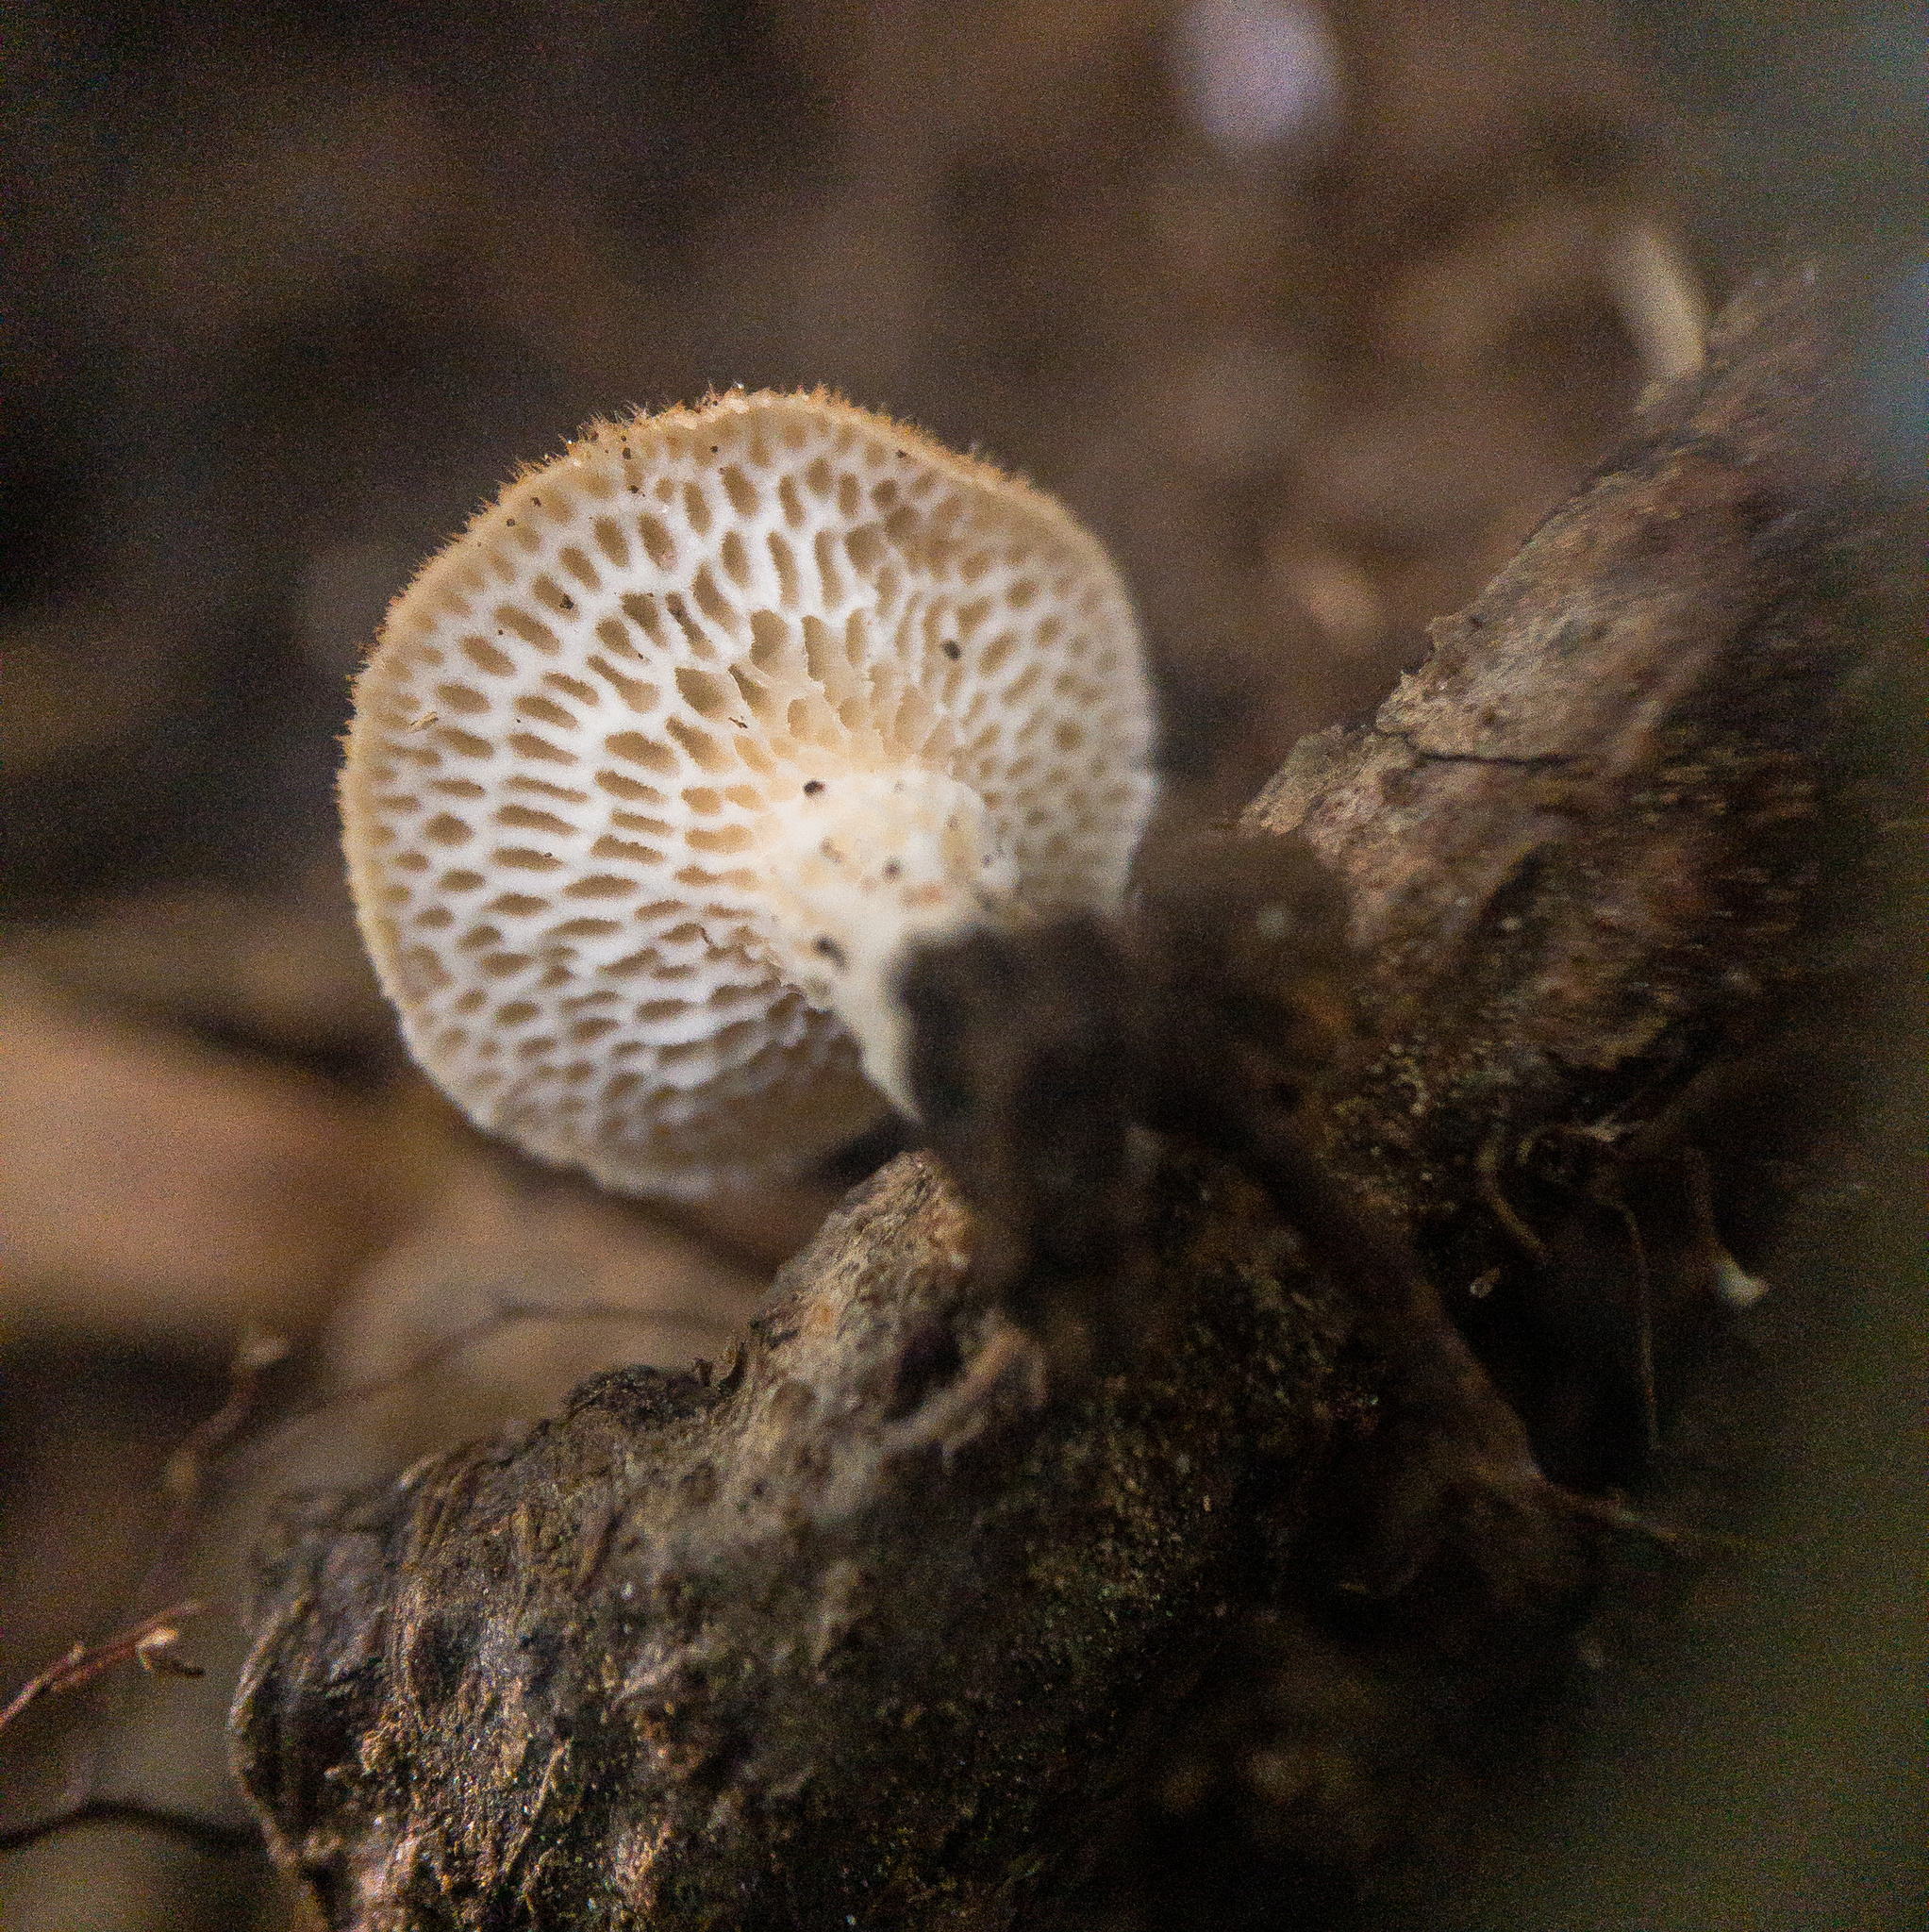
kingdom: Fungi
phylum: Basidiomycota
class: Agaricomycetes
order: Polyporales
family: Polyporaceae
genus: Neofavolus
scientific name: Neofavolus alveolaris
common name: Hexagonal-pored polypore
